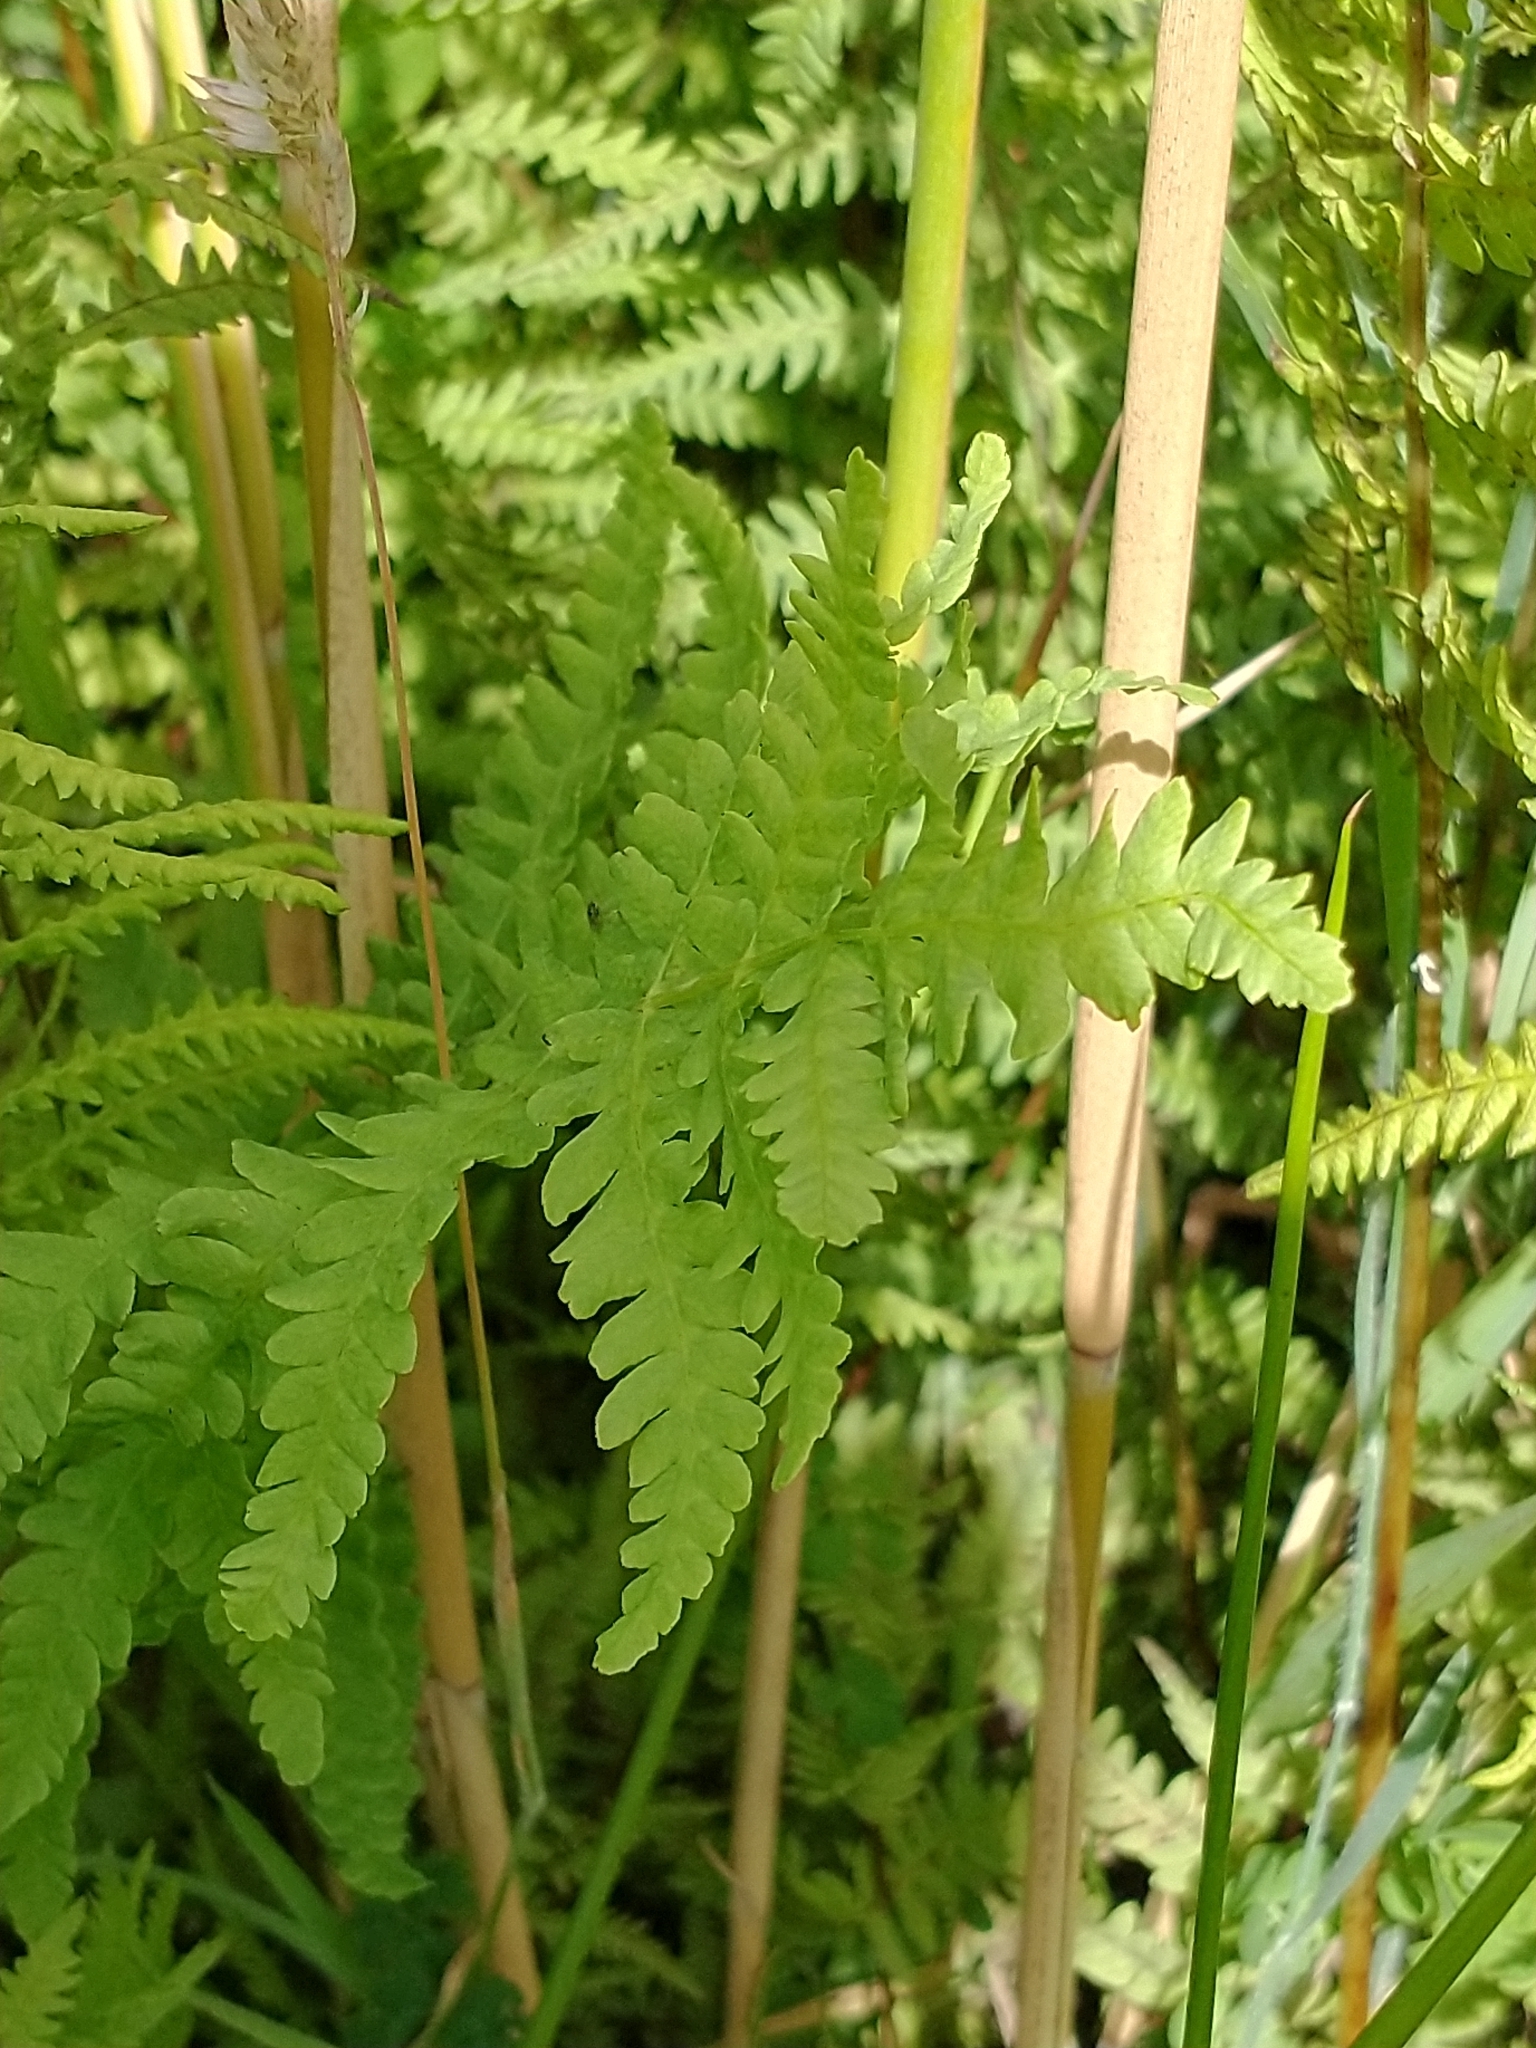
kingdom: Plantae
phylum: Tracheophyta
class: Polypodiopsida
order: Polypodiales
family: Thelypteridaceae
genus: Thelypteris
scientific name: Thelypteris palustris
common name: Marsh fern
